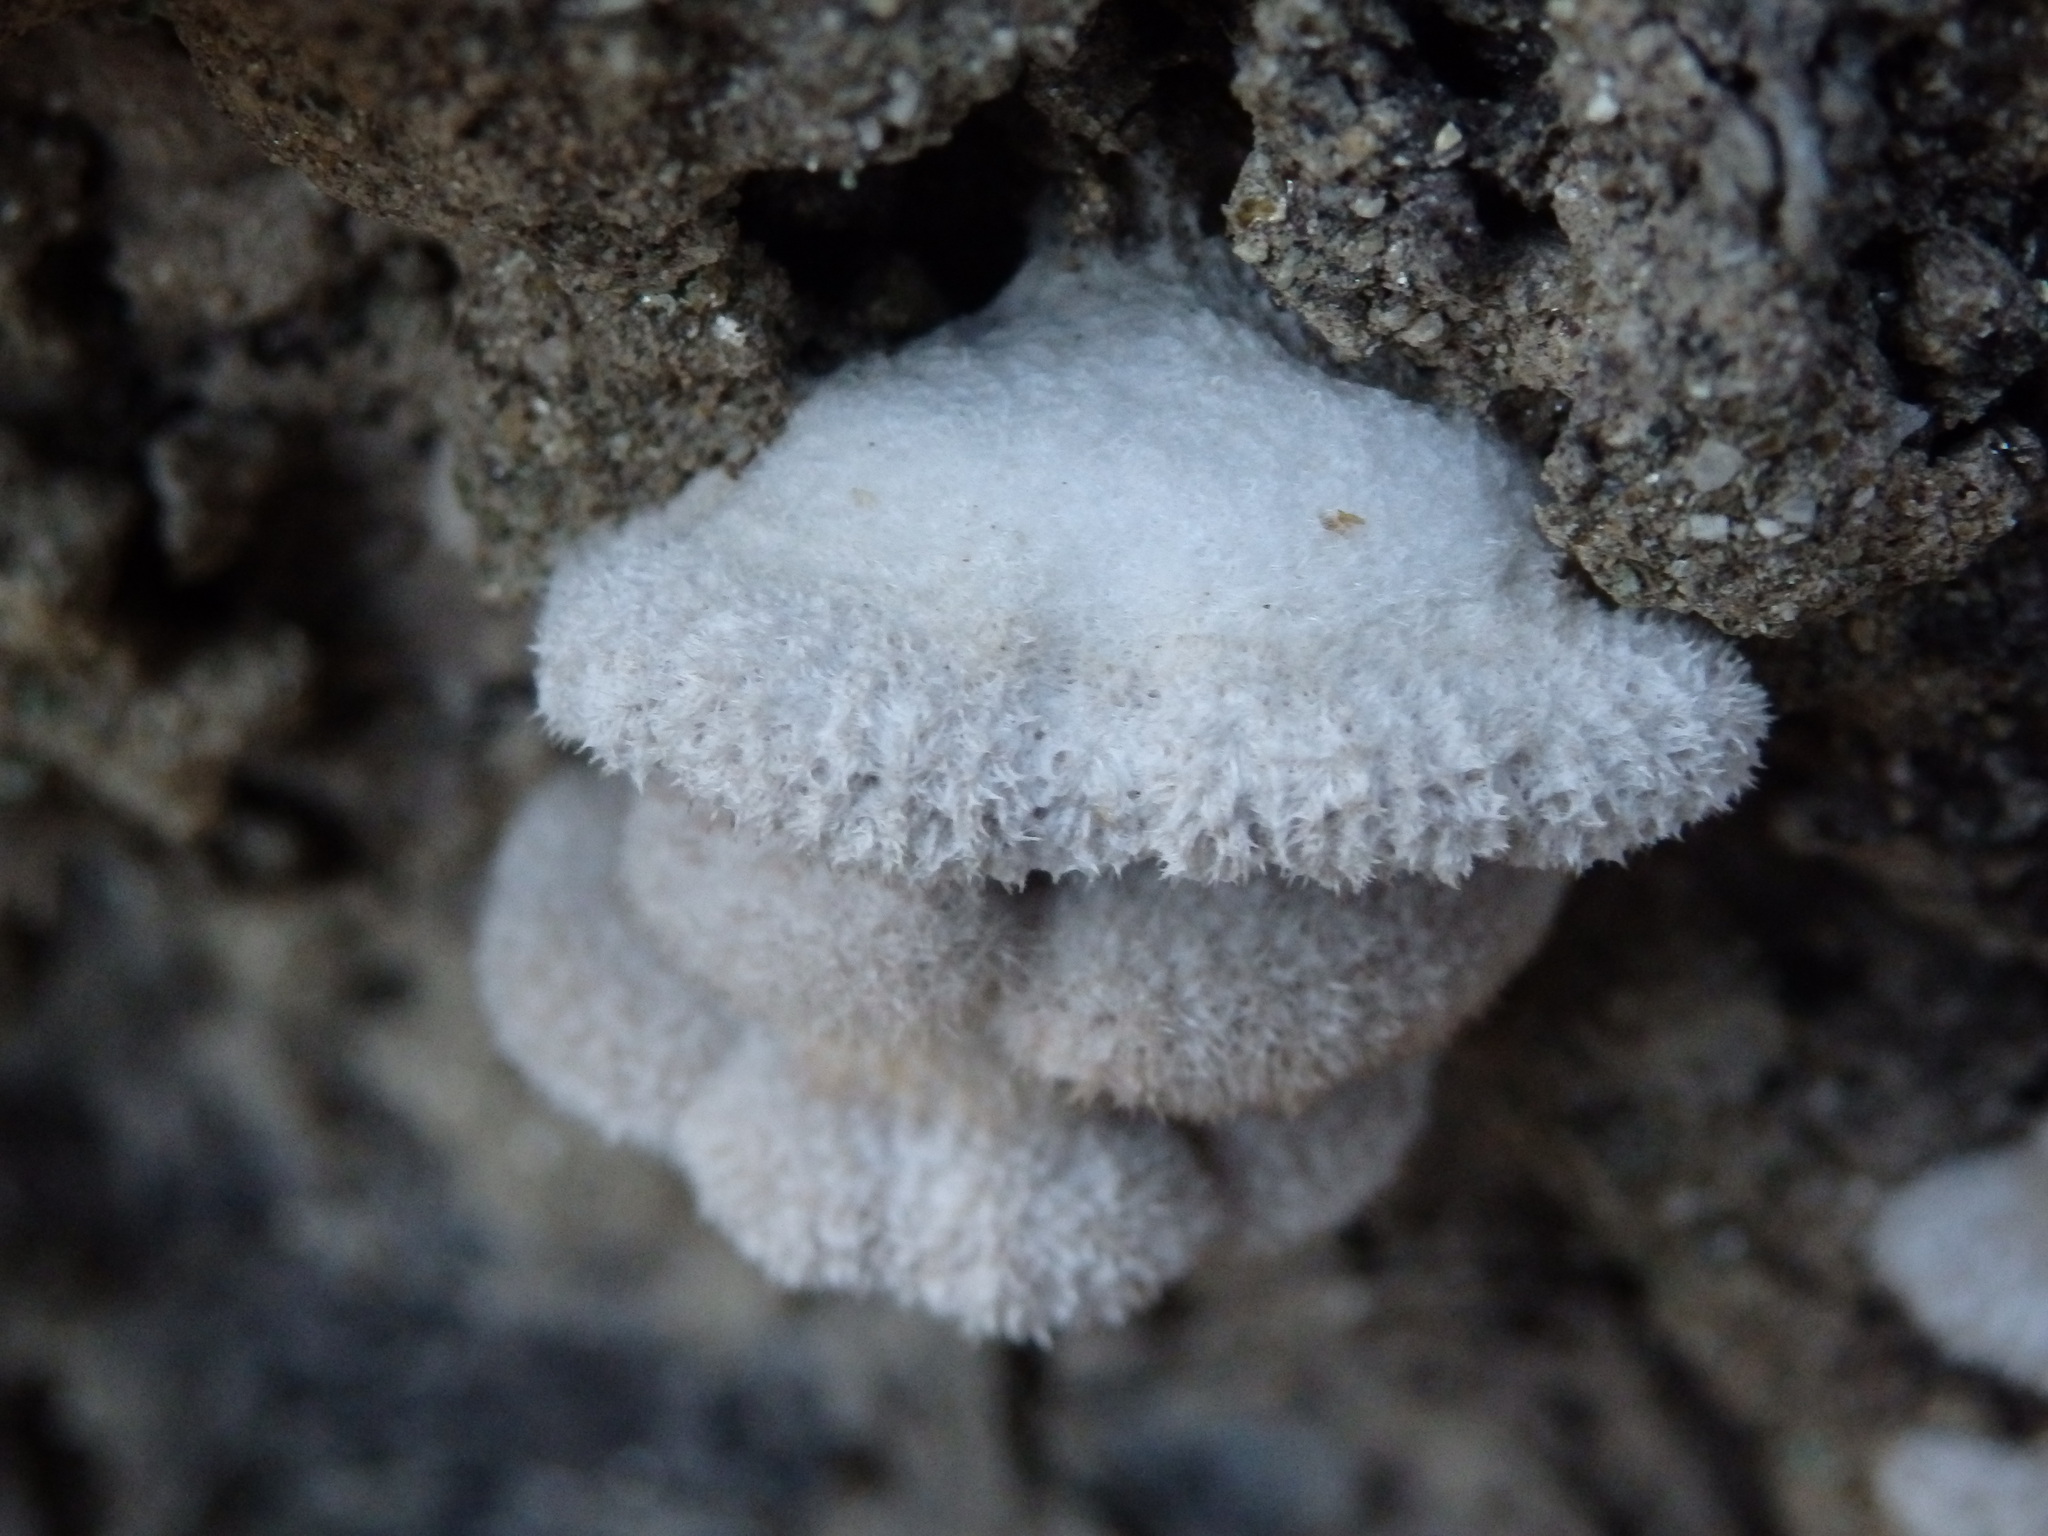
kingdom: Fungi
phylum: Basidiomycota
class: Agaricomycetes
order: Agaricales
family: Schizophyllaceae
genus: Schizophyllum
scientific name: Schizophyllum commune
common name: Common porecrust
